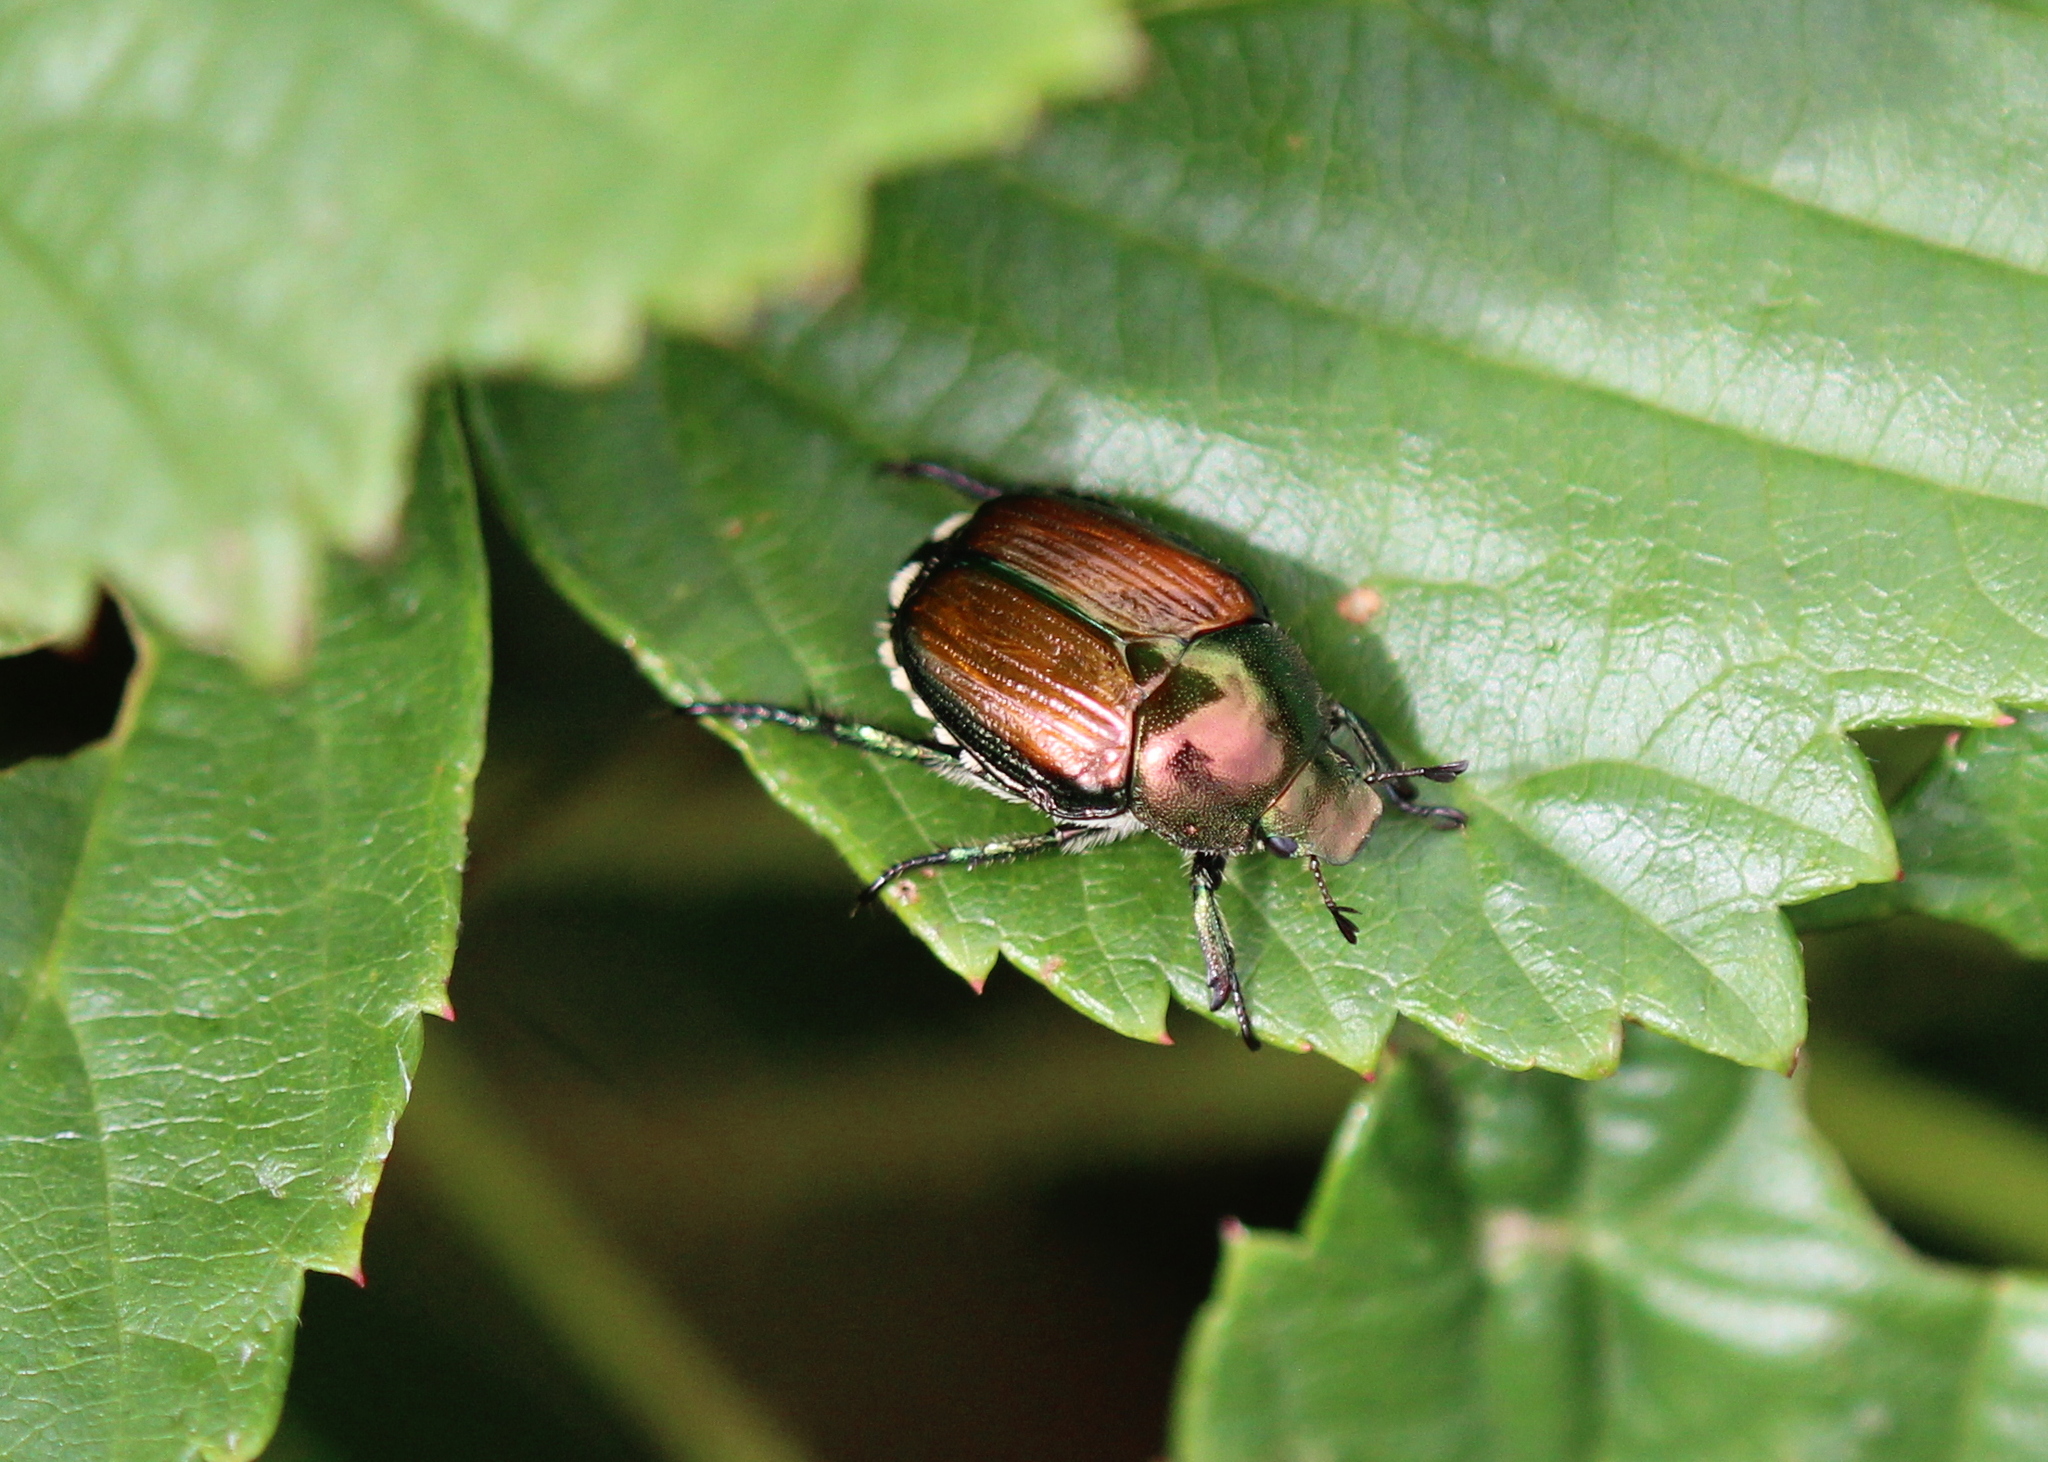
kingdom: Animalia
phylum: Arthropoda
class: Insecta
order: Coleoptera
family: Scarabaeidae
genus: Popillia
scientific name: Popillia japonica
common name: Japanese beetle
